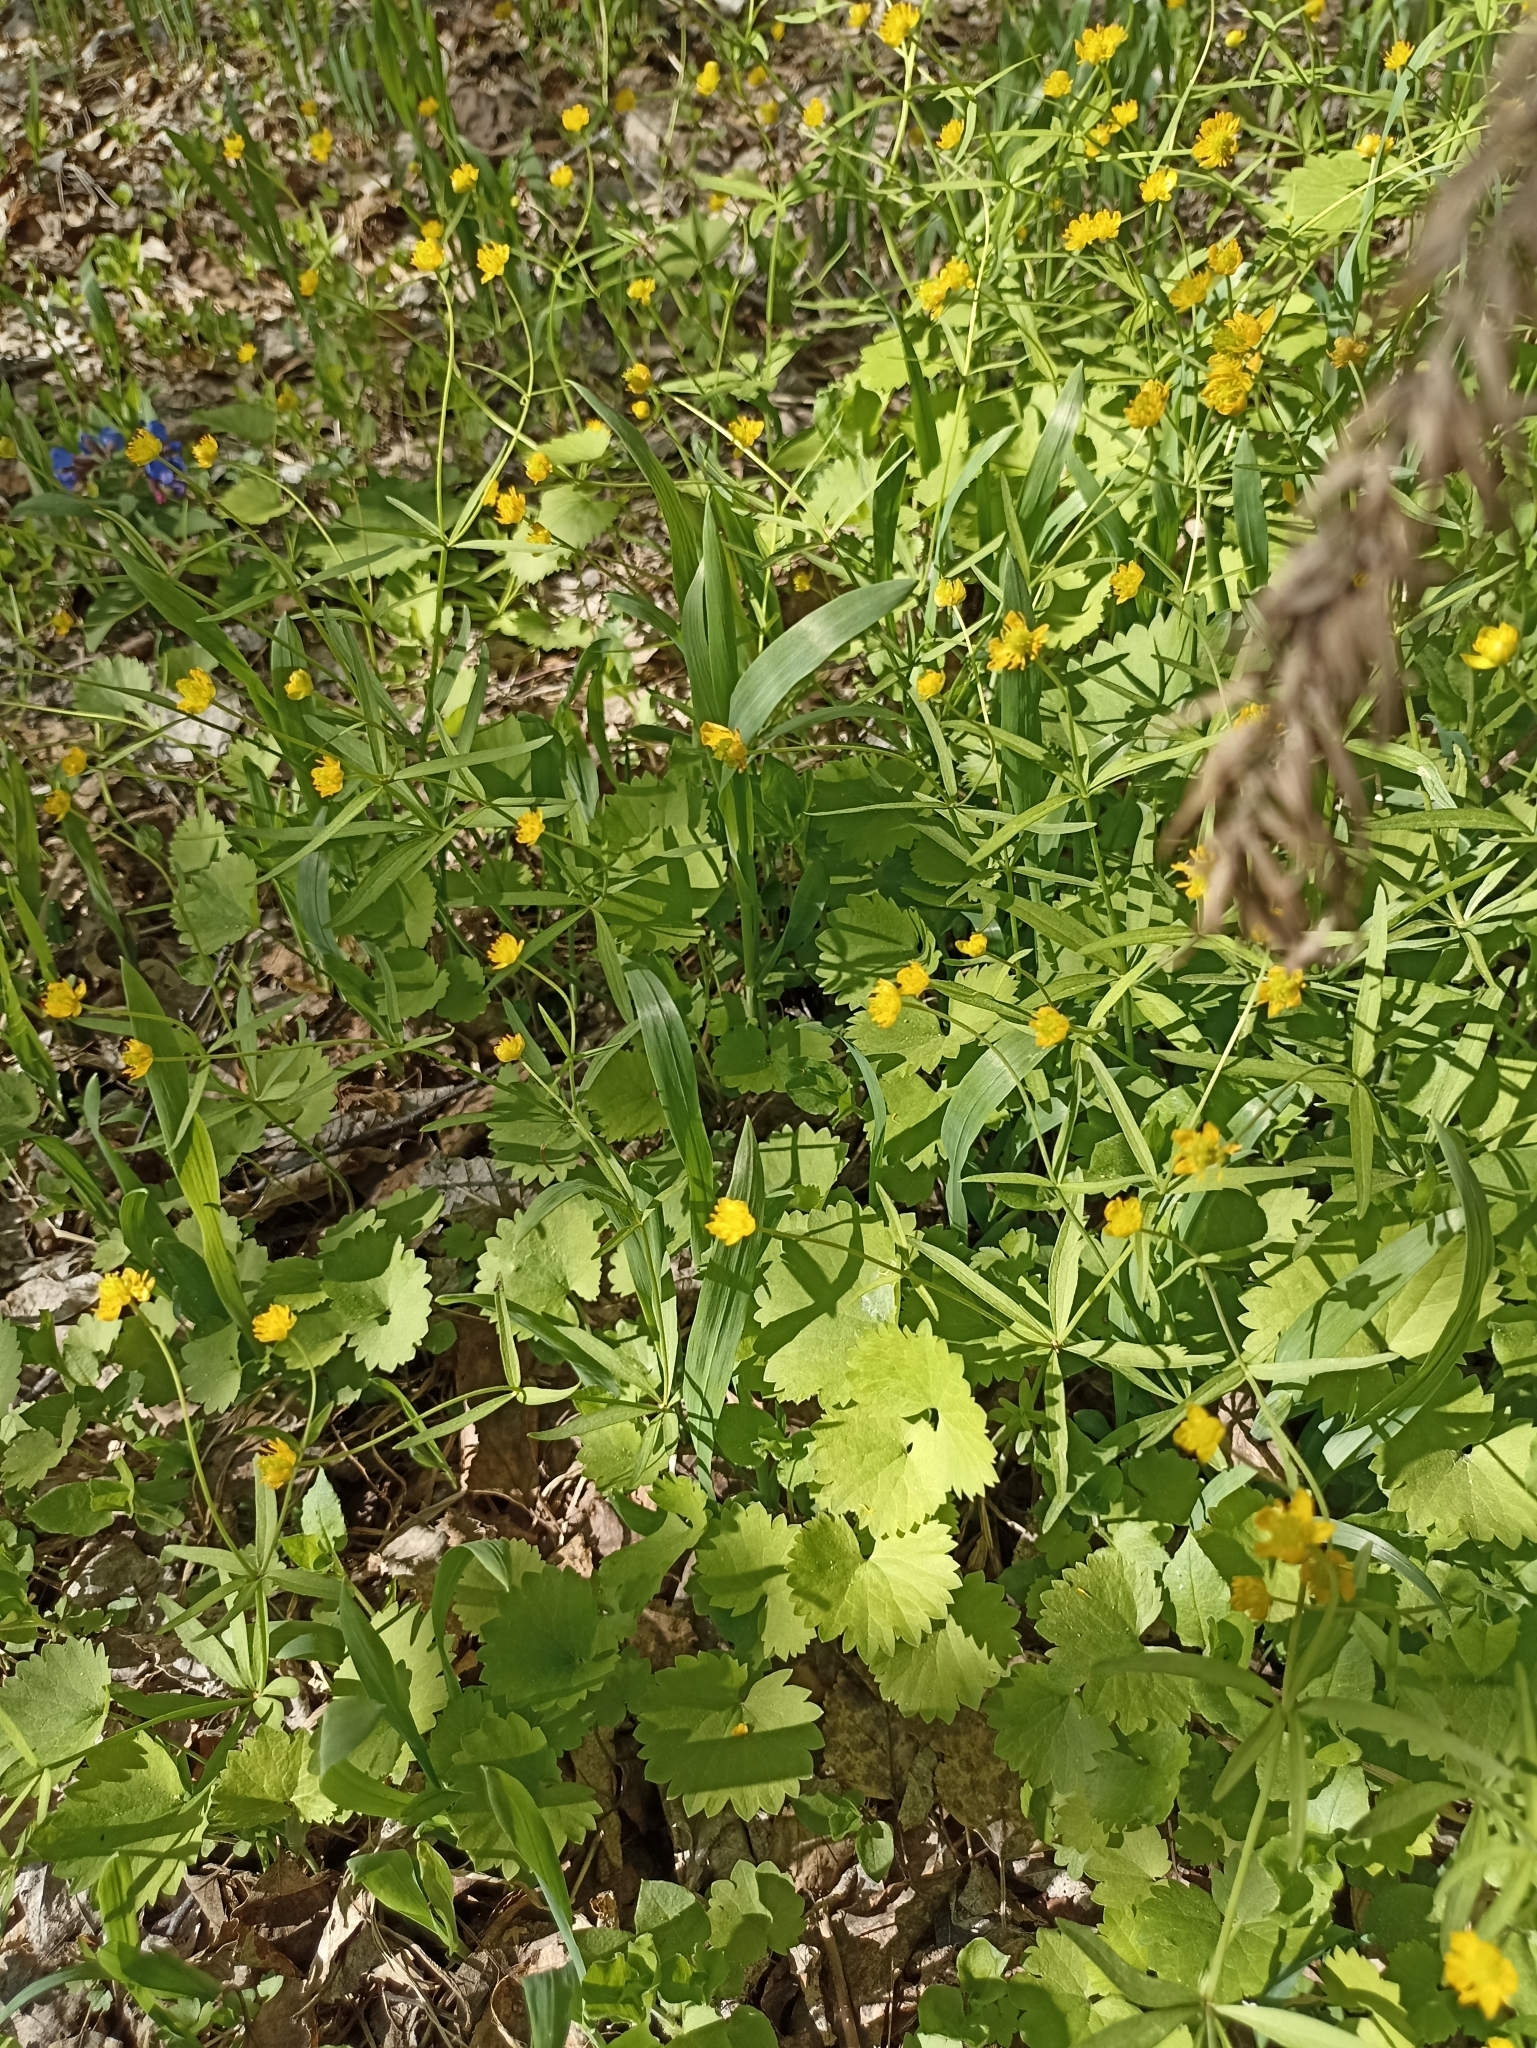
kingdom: Plantae
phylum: Tracheophyta
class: Magnoliopsida
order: Ranunculales
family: Ranunculaceae
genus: Ranunculus
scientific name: Ranunculus monophyllus
